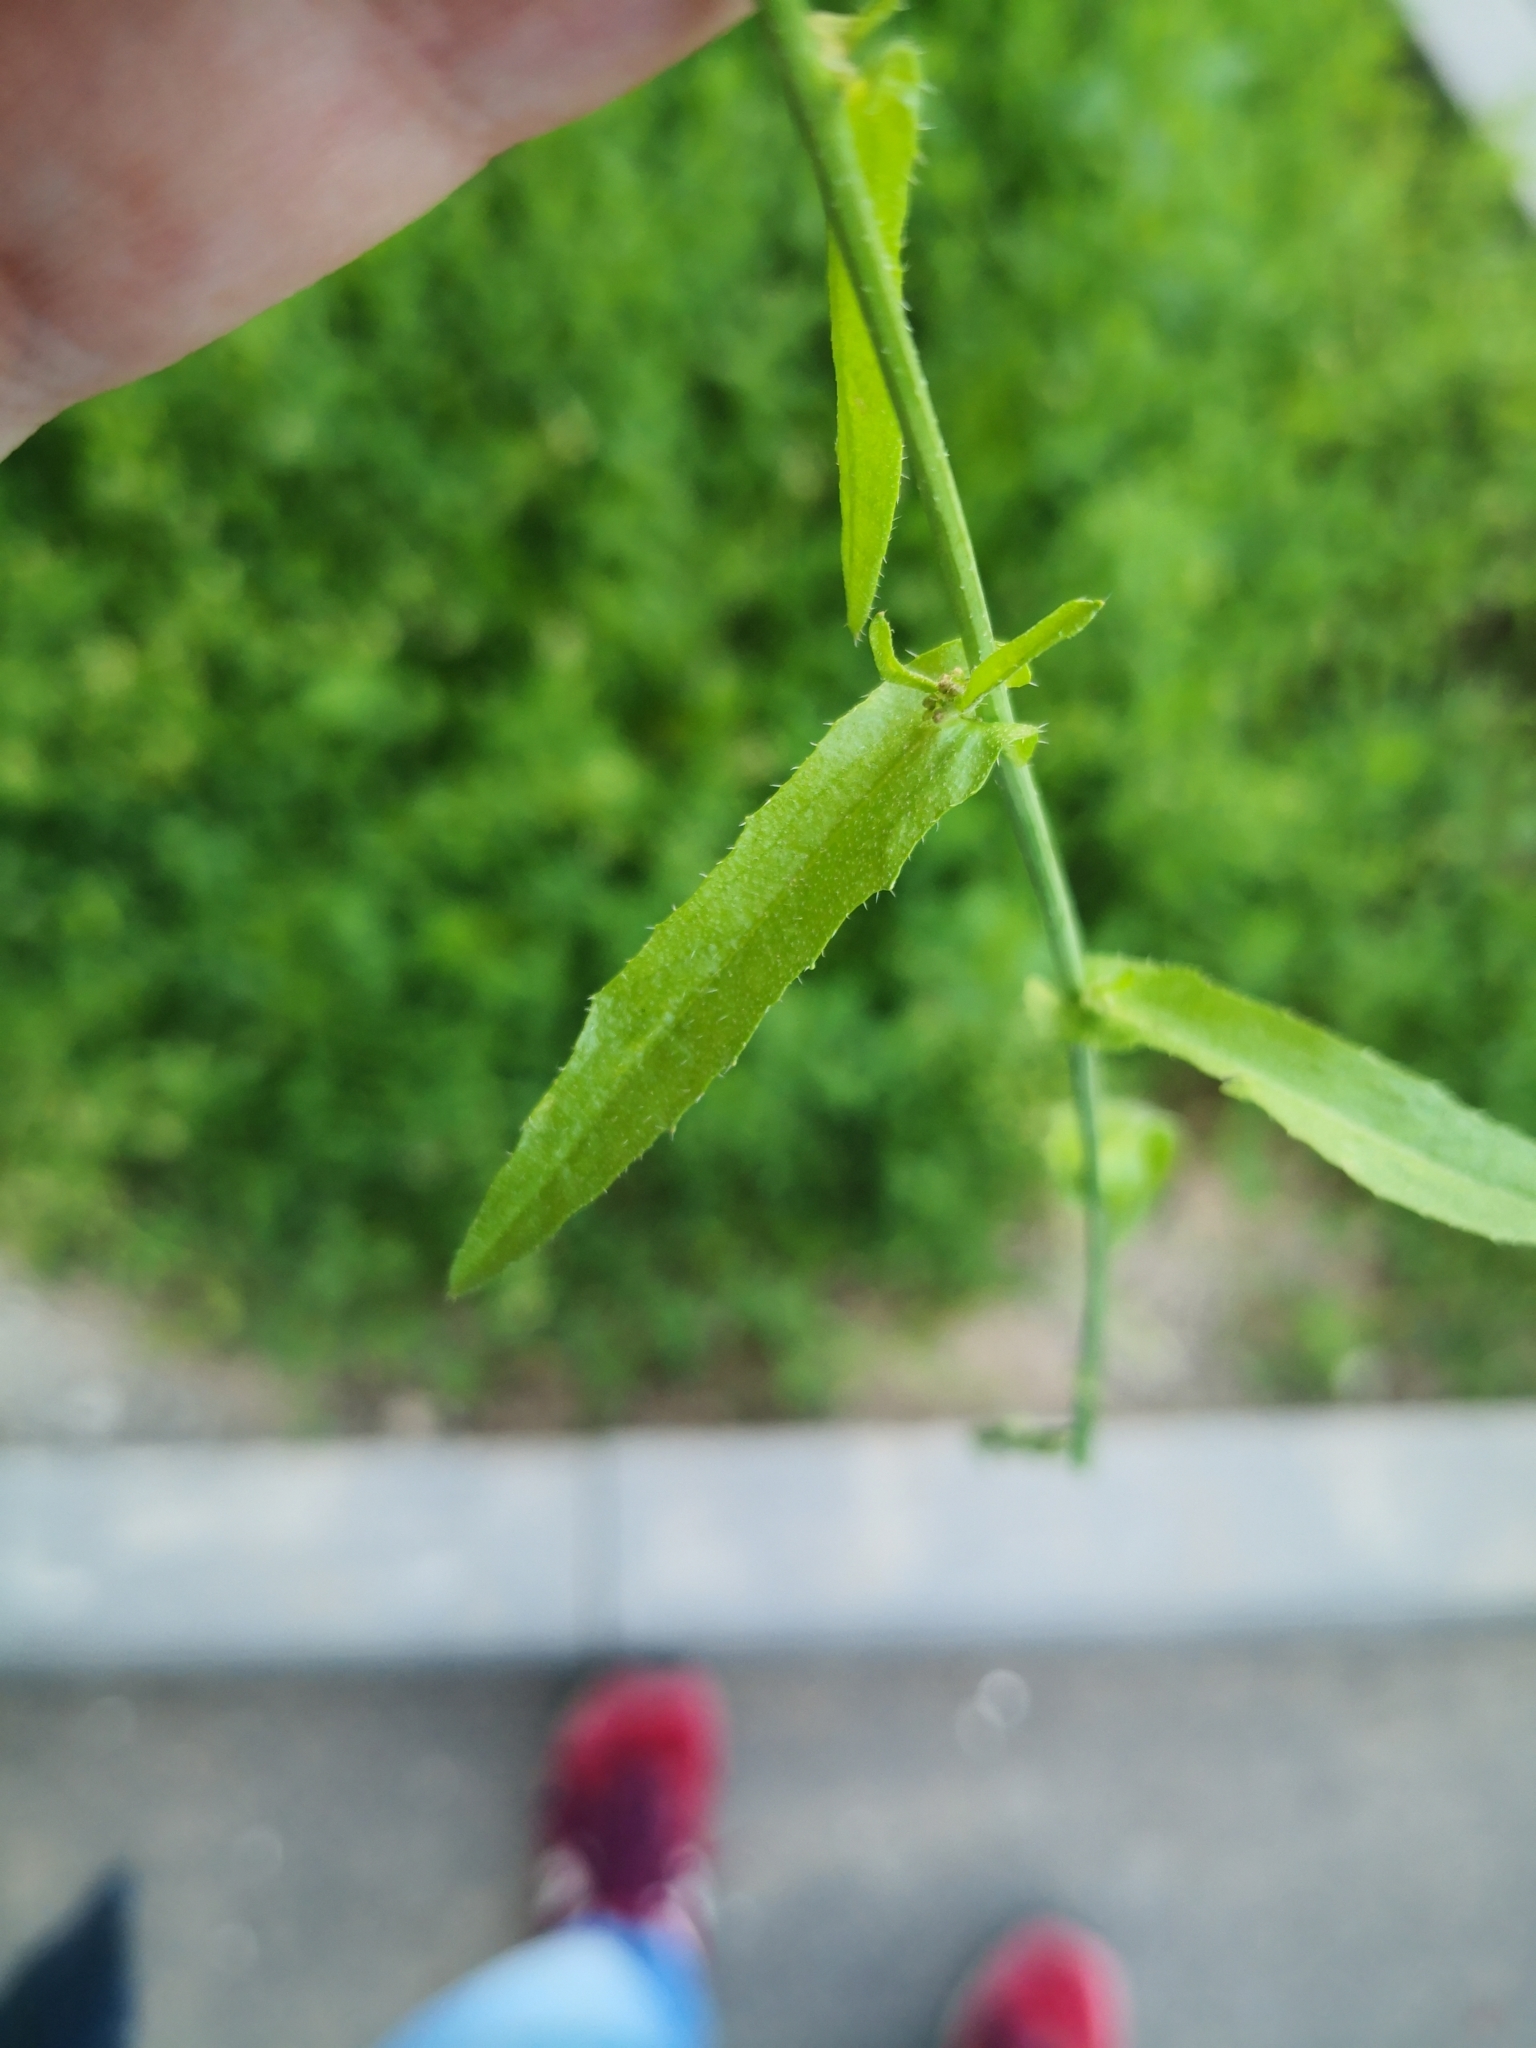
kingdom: Plantae
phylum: Tracheophyta
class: Magnoliopsida
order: Brassicales
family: Brassicaceae
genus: Capsella
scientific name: Capsella bursa-pastoris
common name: Shepherd's purse
